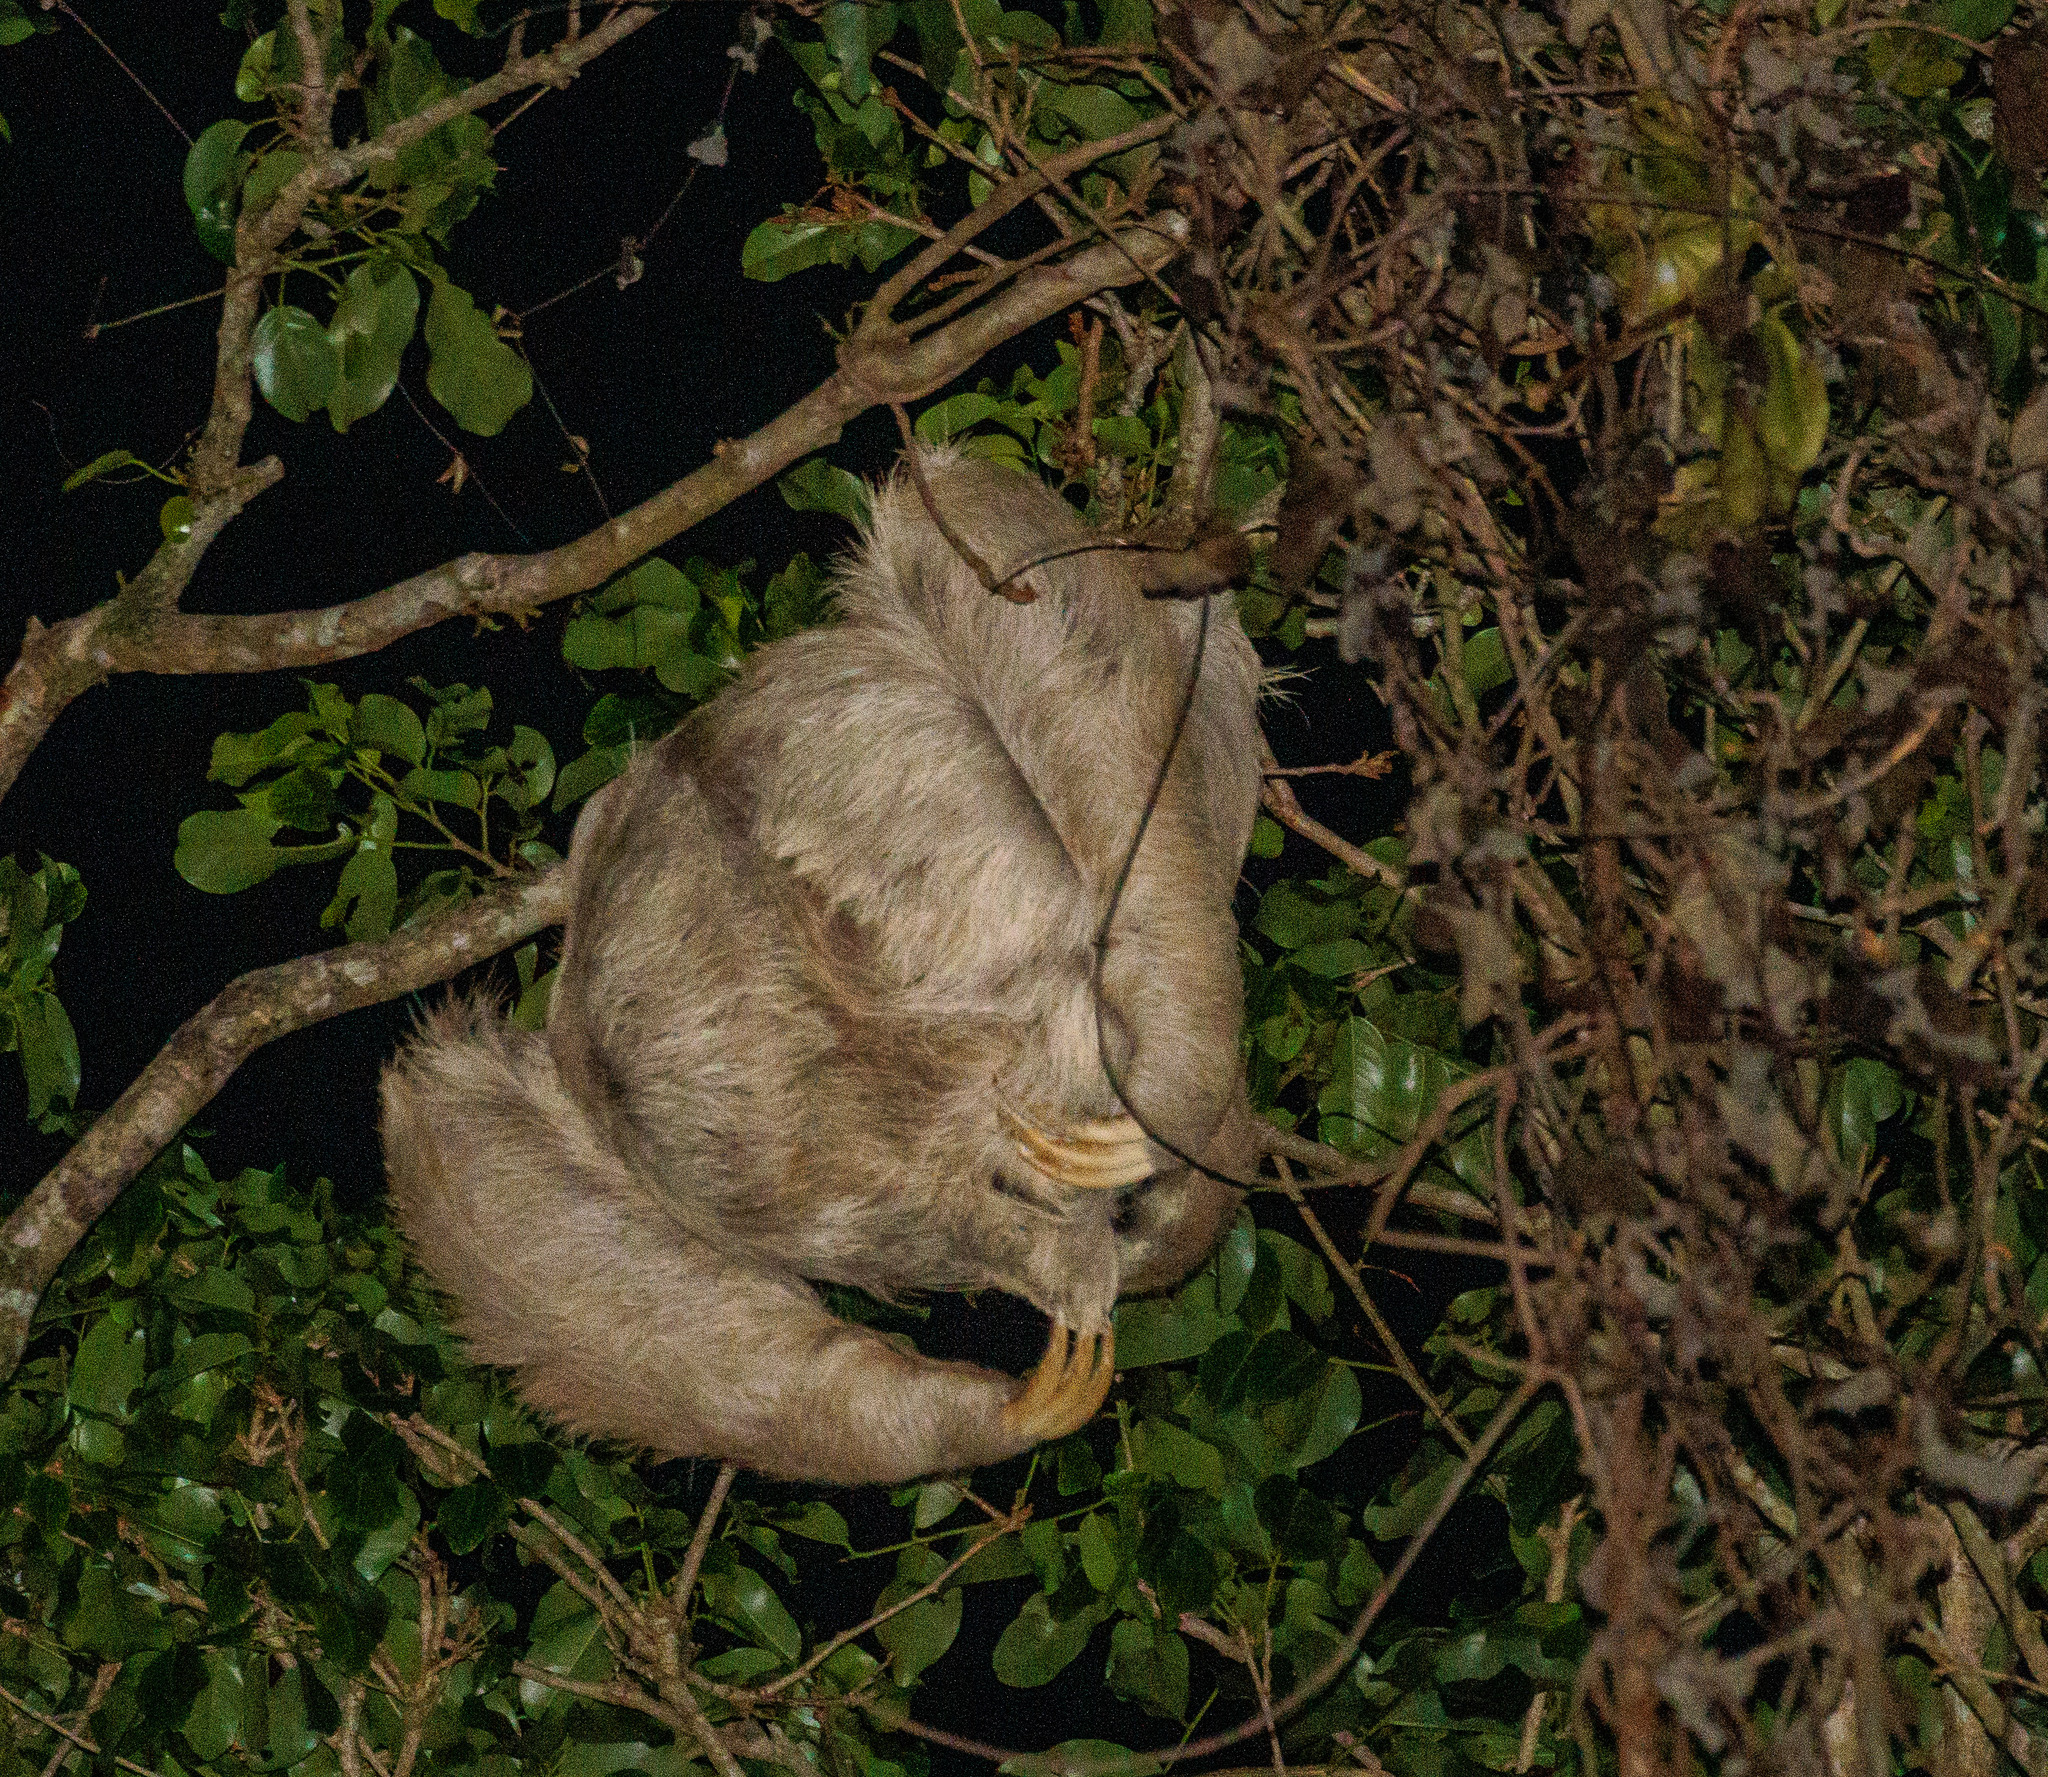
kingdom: Animalia
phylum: Chordata
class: Mammalia
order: Pilosa
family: Bradypodidae
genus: Bradypus
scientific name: Bradypus variegatus
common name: Brown-throated three-toed sloth
